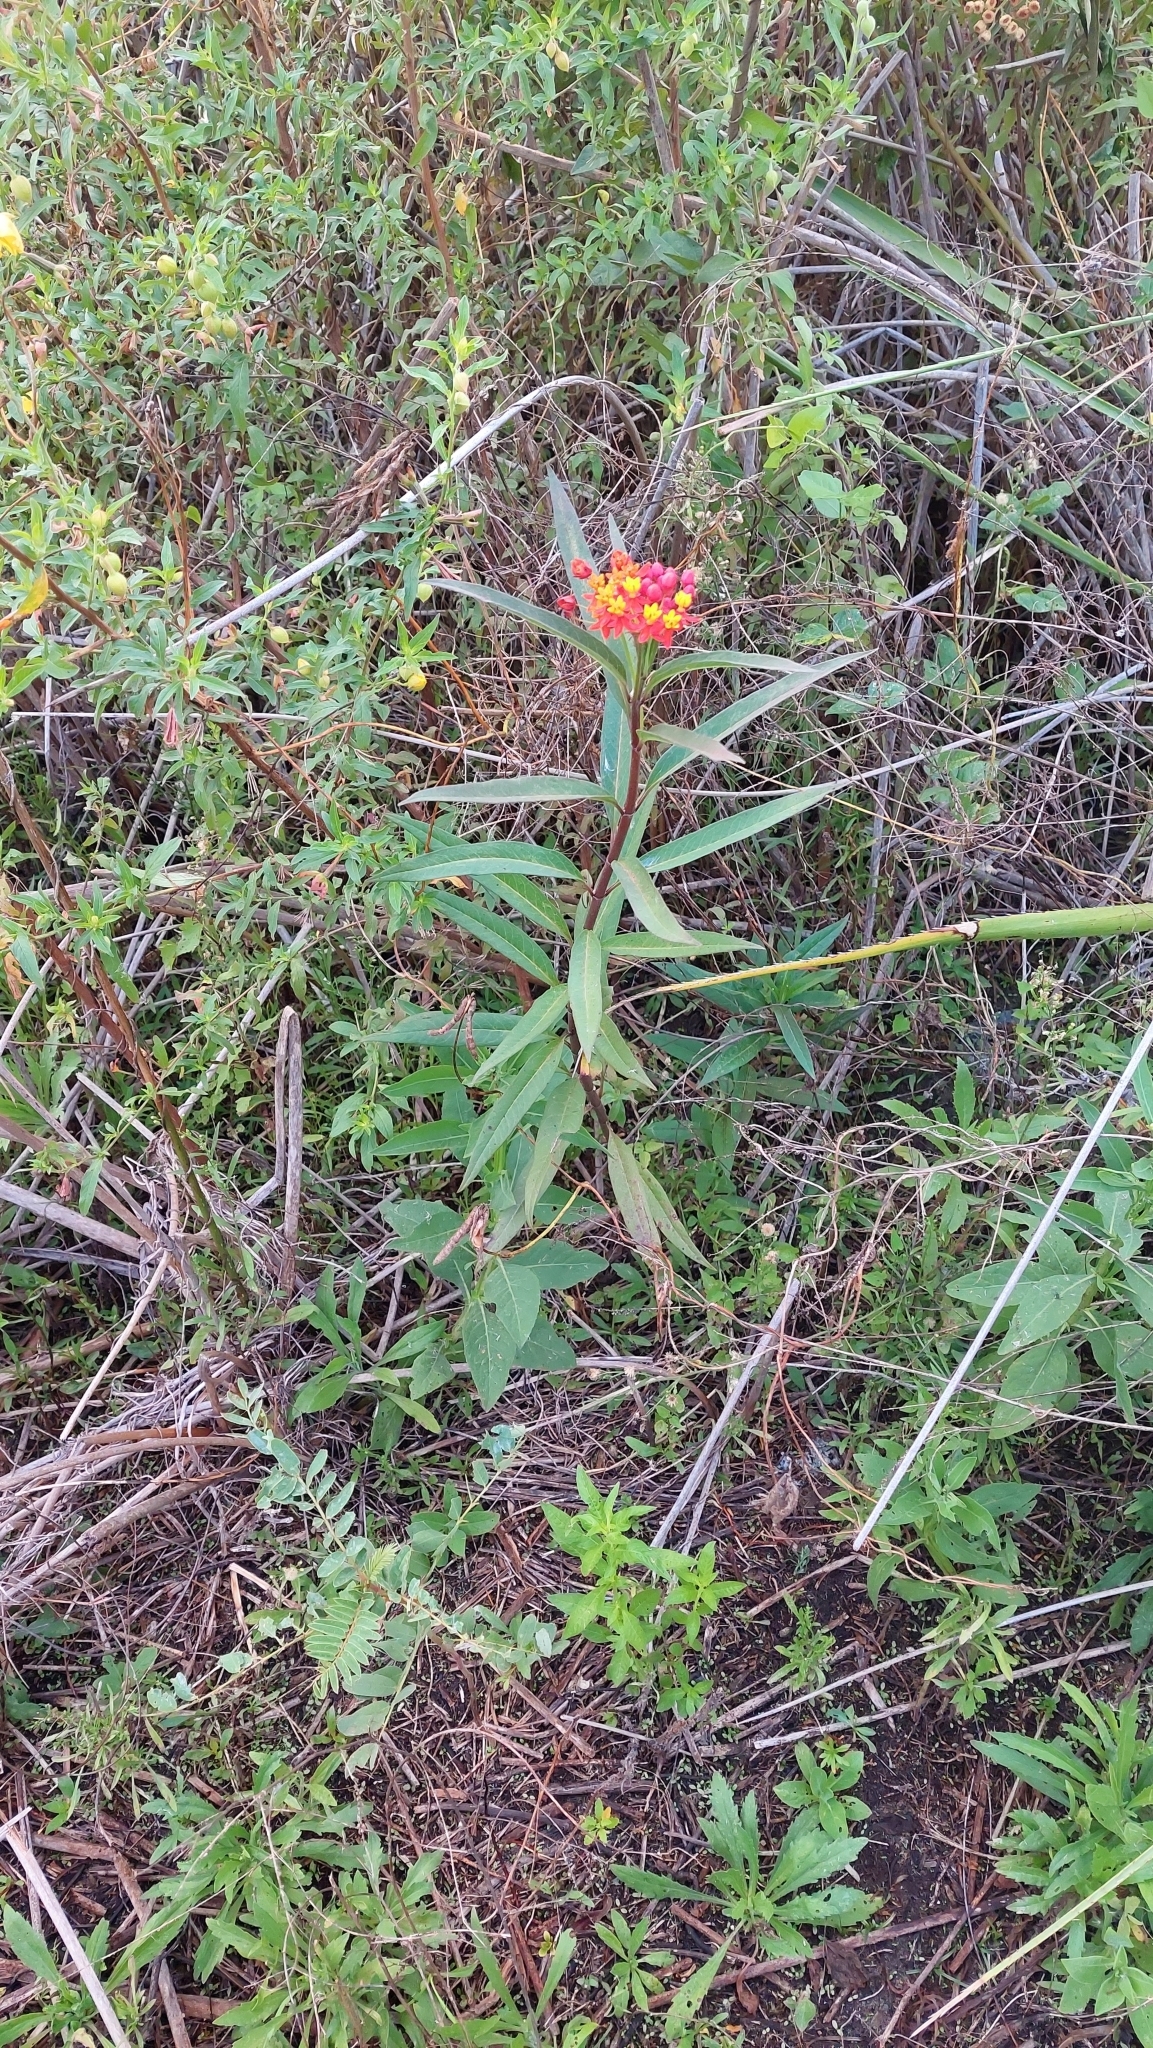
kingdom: Plantae
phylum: Tracheophyta
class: Magnoliopsida
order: Gentianales
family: Apocynaceae
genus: Asclepias
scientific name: Asclepias curassavica
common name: Bloodflower
